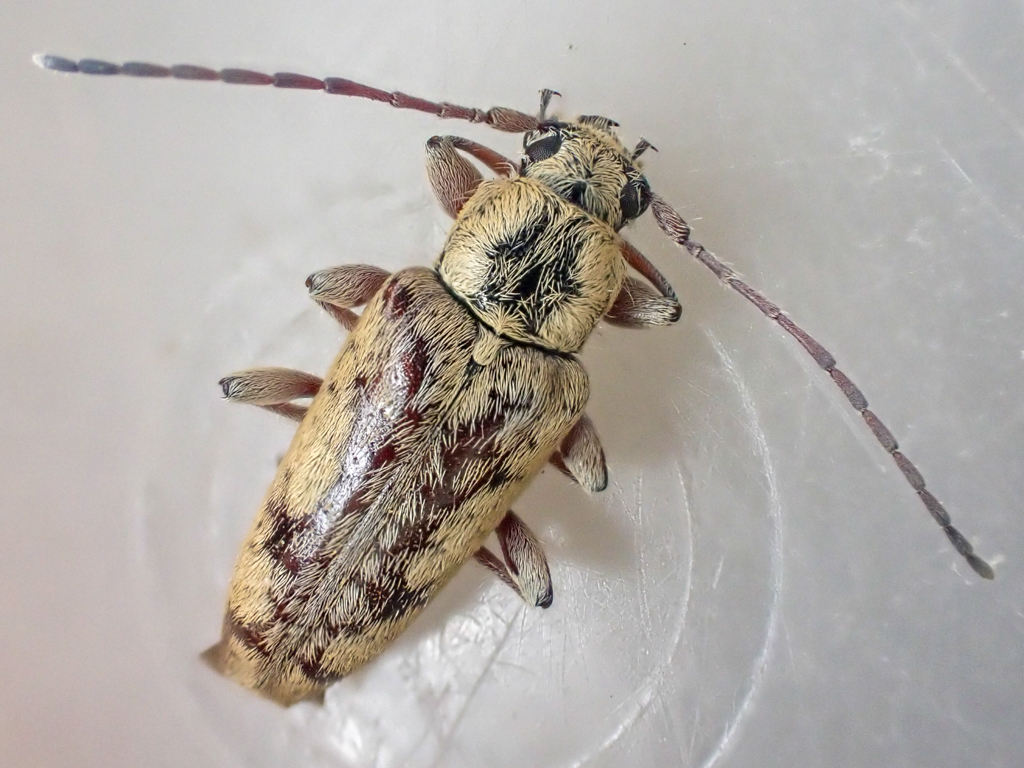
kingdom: Animalia
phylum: Arthropoda
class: Insecta
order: Coleoptera
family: Cerambycidae
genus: Atimia
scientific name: Atimia confusa
